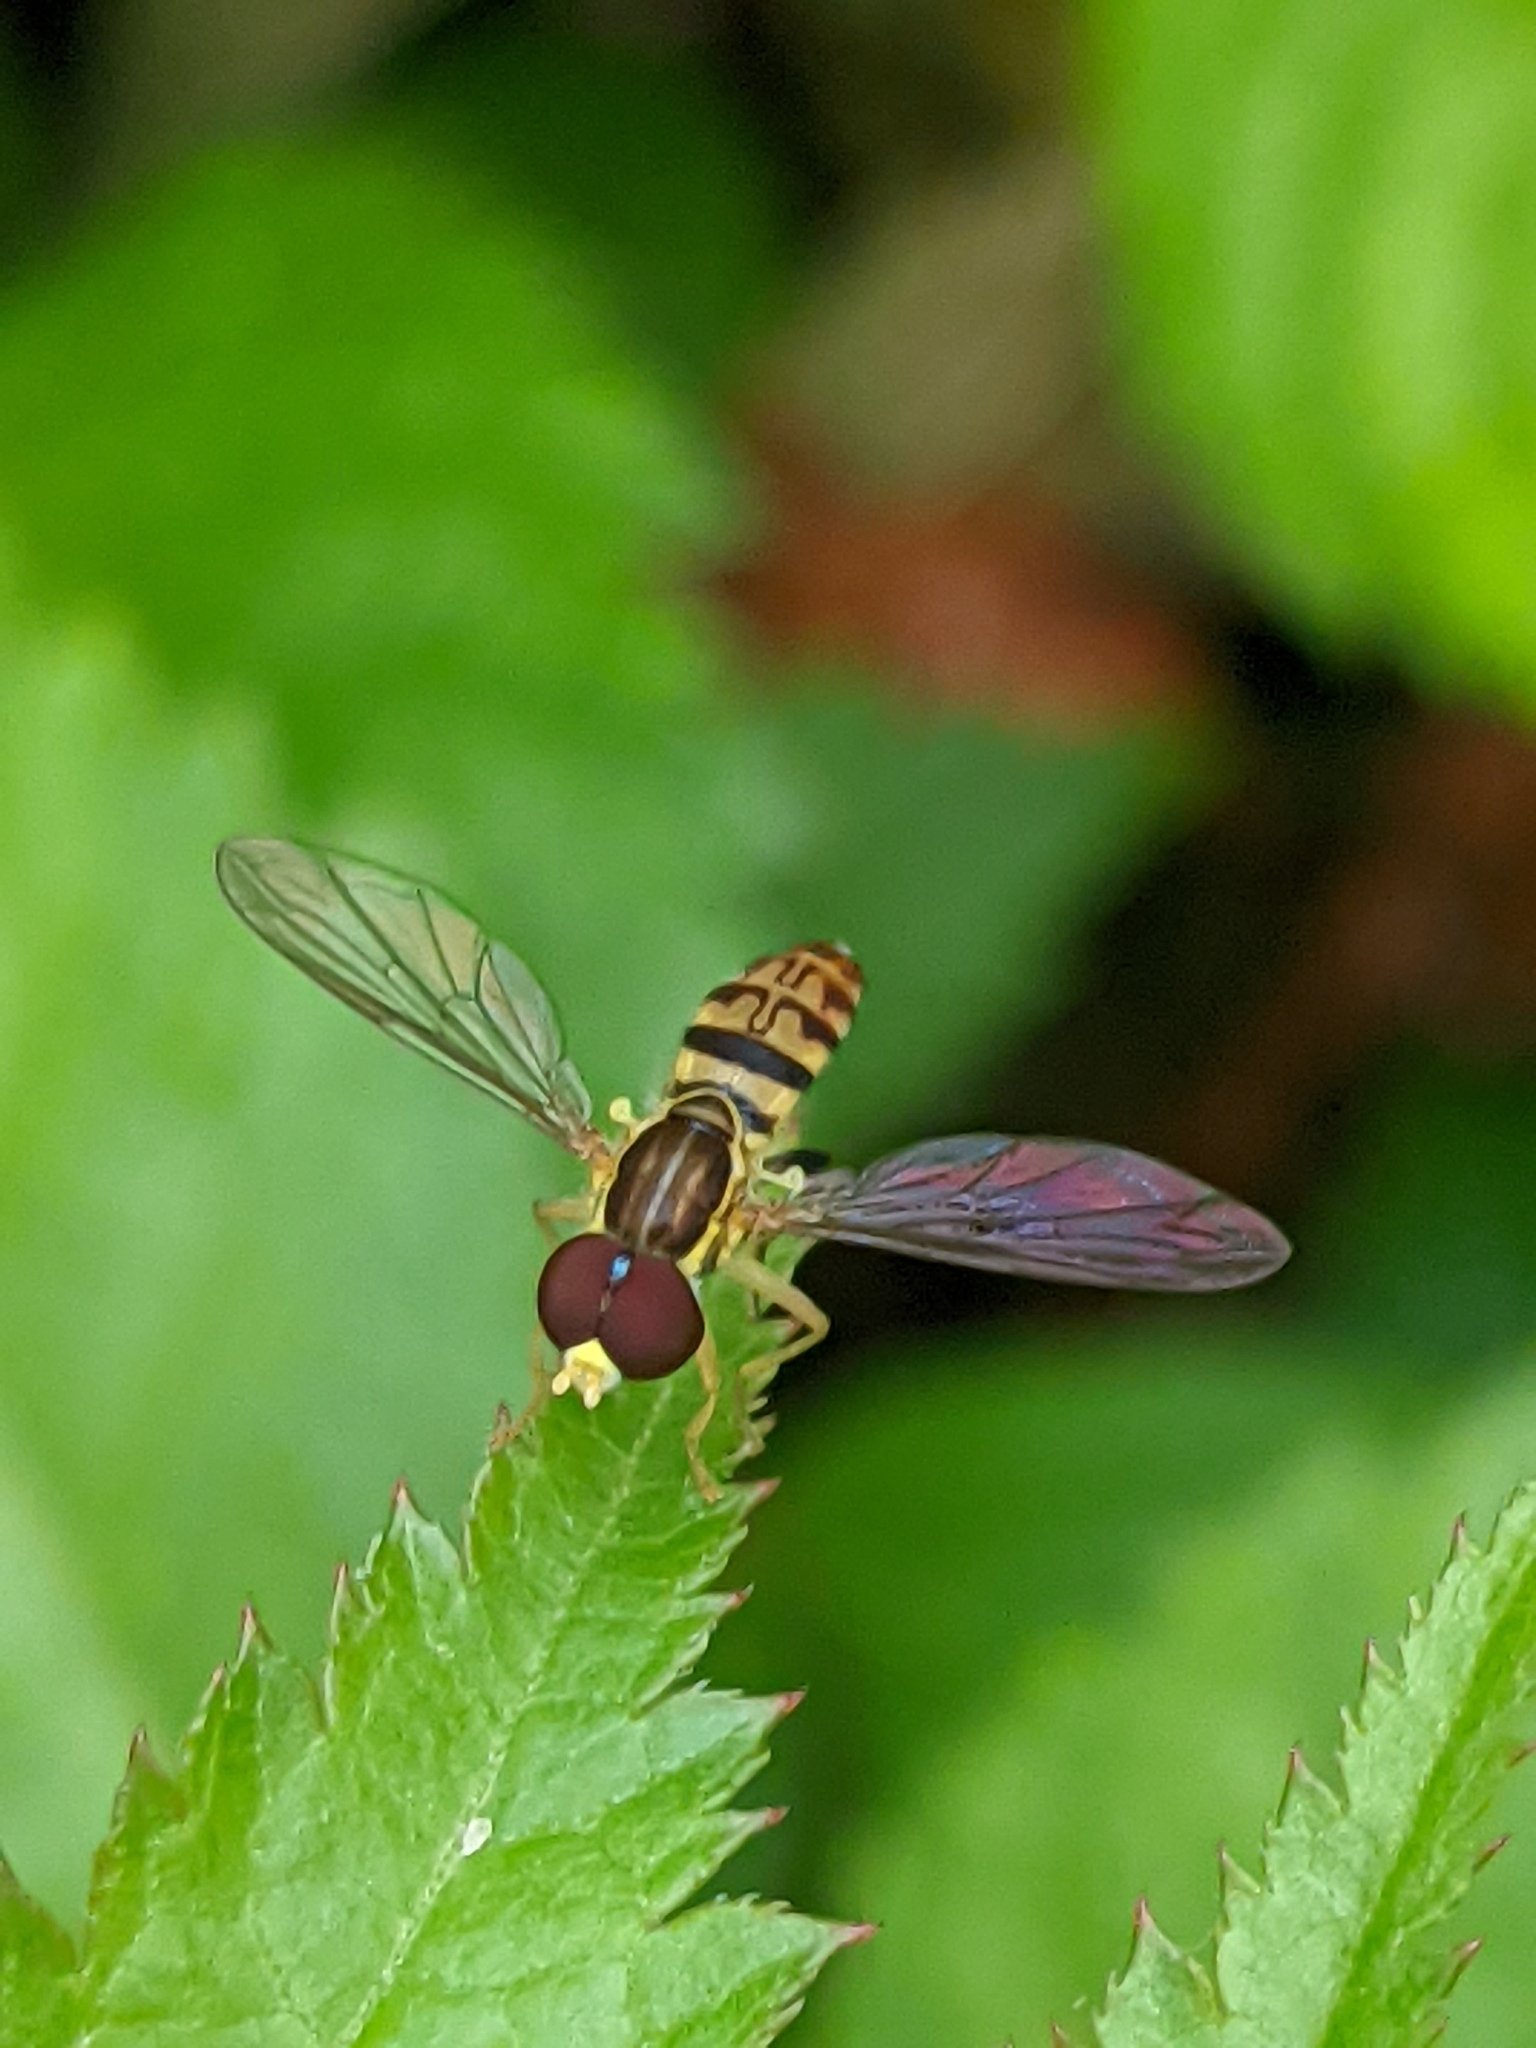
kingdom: Animalia
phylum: Arthropoda
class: Insecta
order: Diptera
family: Syrphidae
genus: Toxomerus
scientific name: Toxomerus geminatus
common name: Eastern calligrapher
